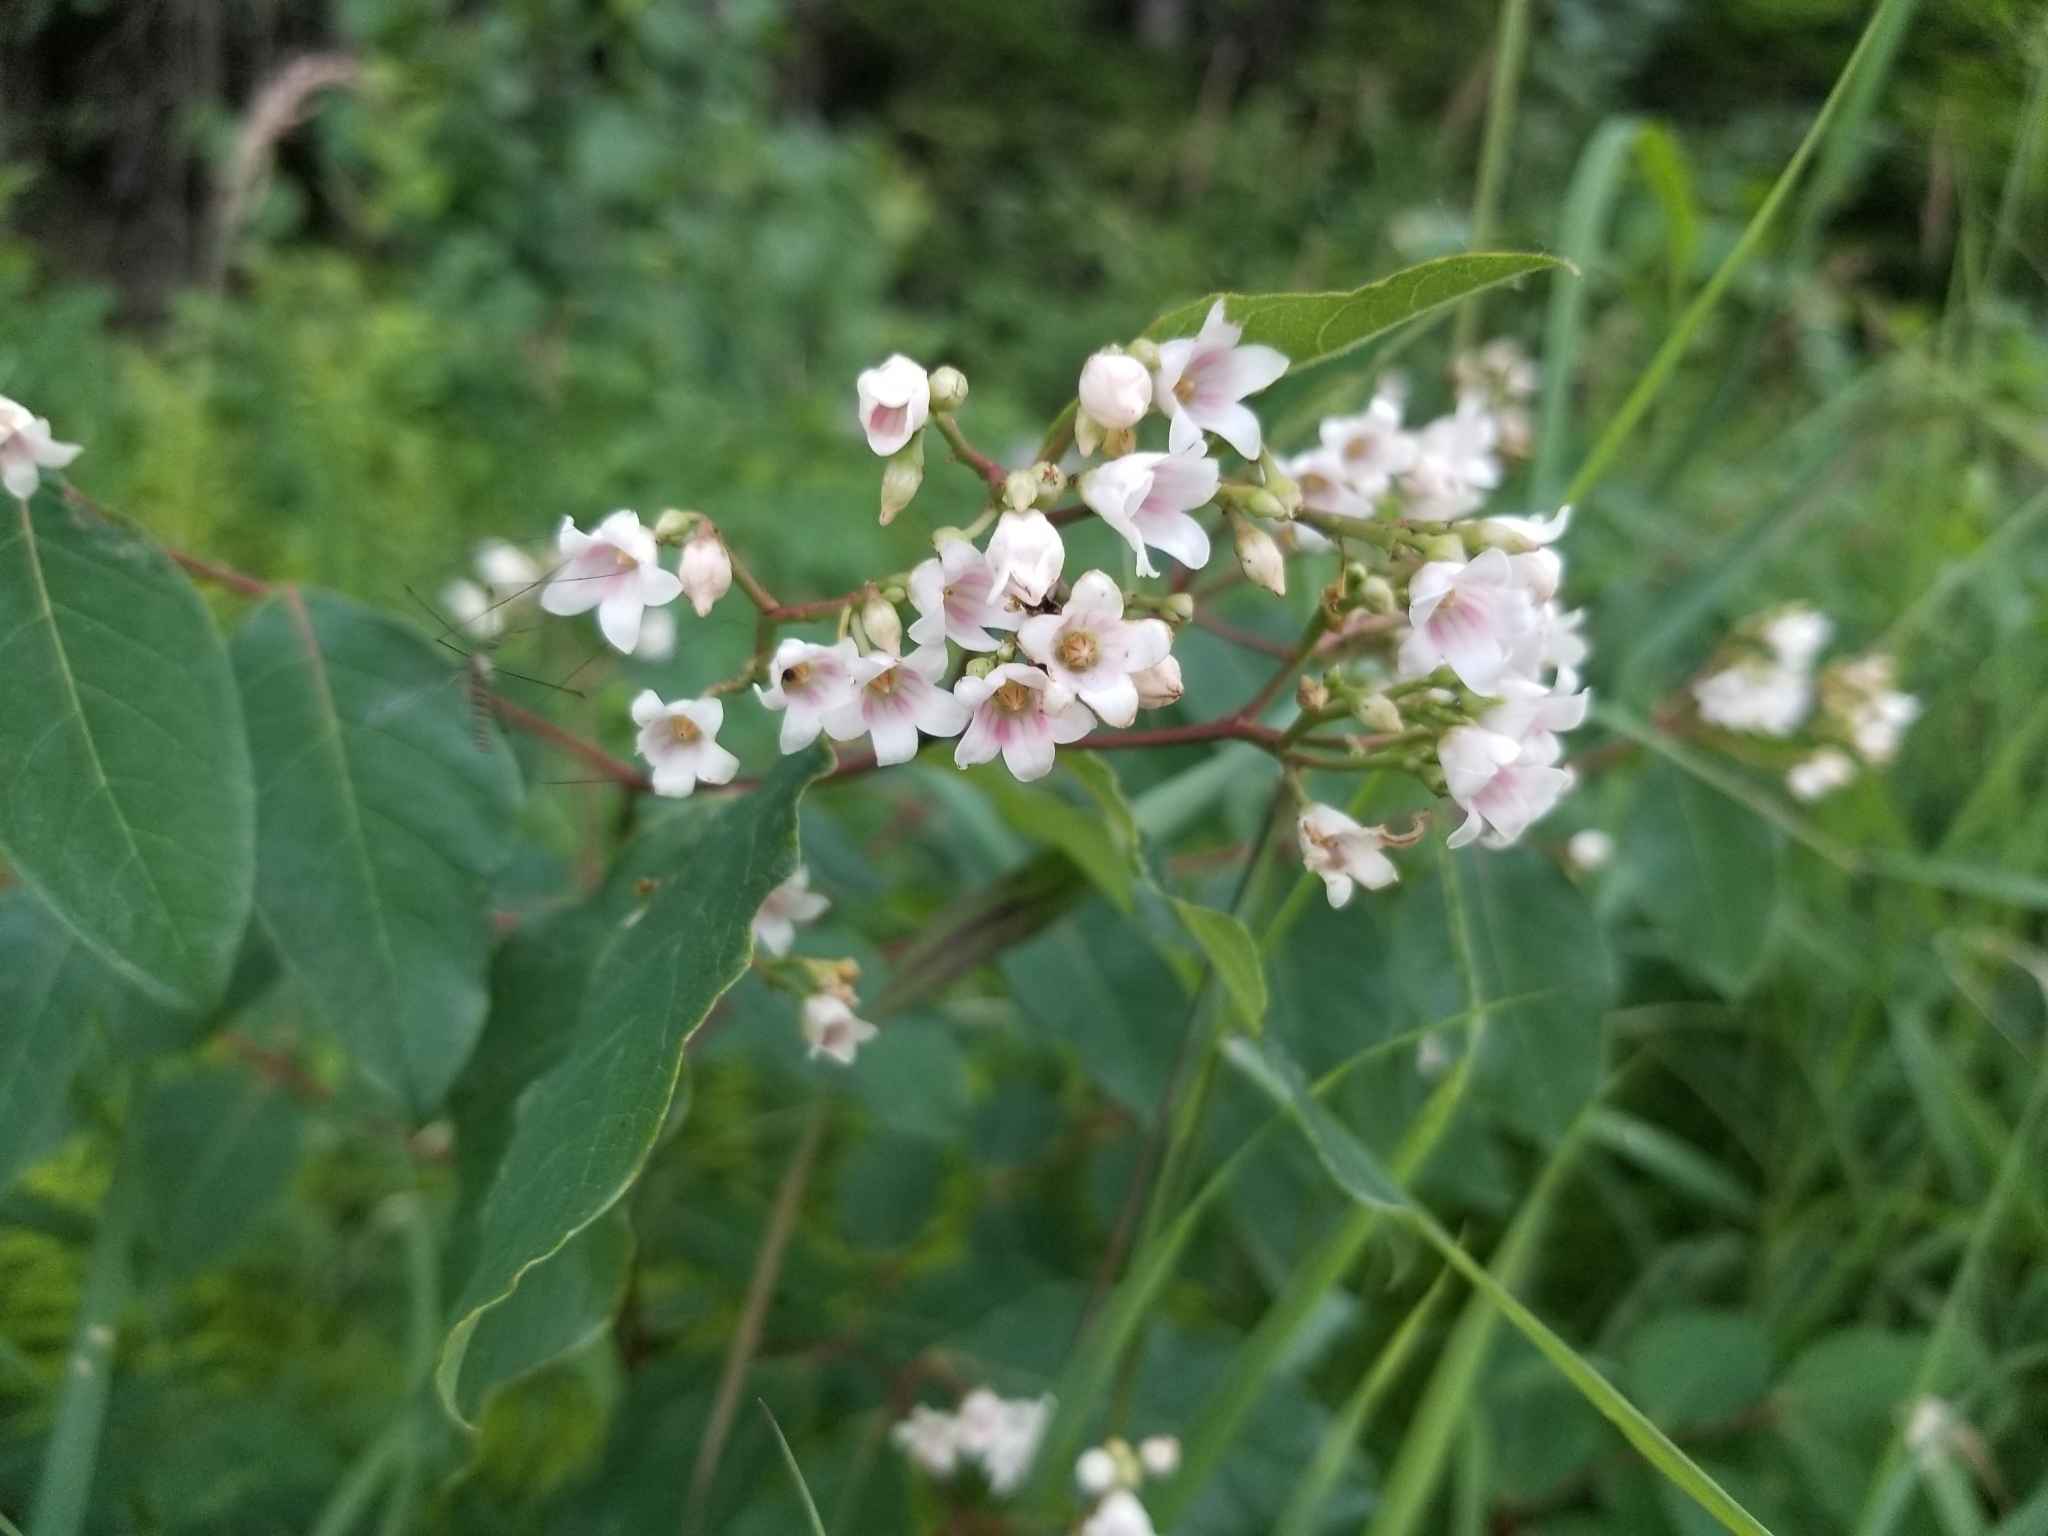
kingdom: Plantae
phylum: Tracheophyta
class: Magnoliopsida
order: Gentianales
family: Apocynaceae
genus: Apocynum
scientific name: Apocynum androsaemifolium
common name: Spreading dogbane
